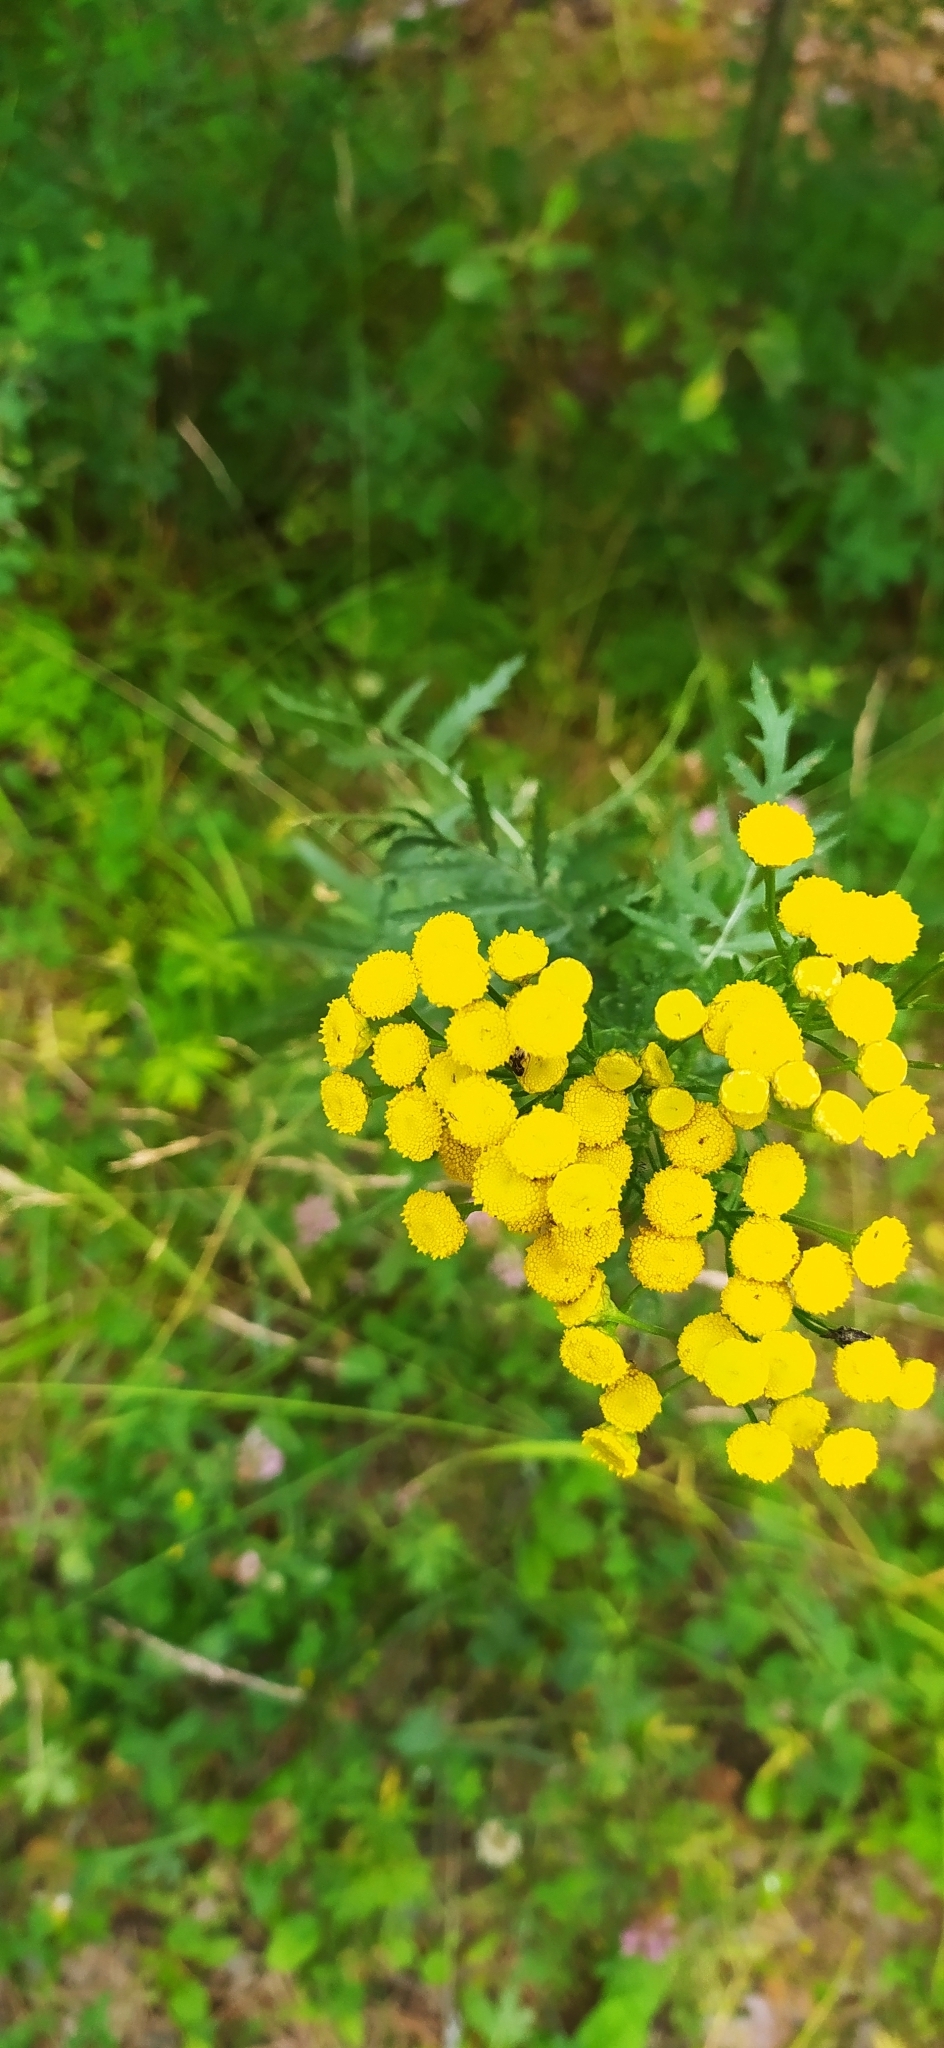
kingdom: Plantae
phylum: Tracheophyta
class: Magnoliopsida
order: Asterales
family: Asteraceae
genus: Tanacetum
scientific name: Tanacetum vulgare
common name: Common tansy
